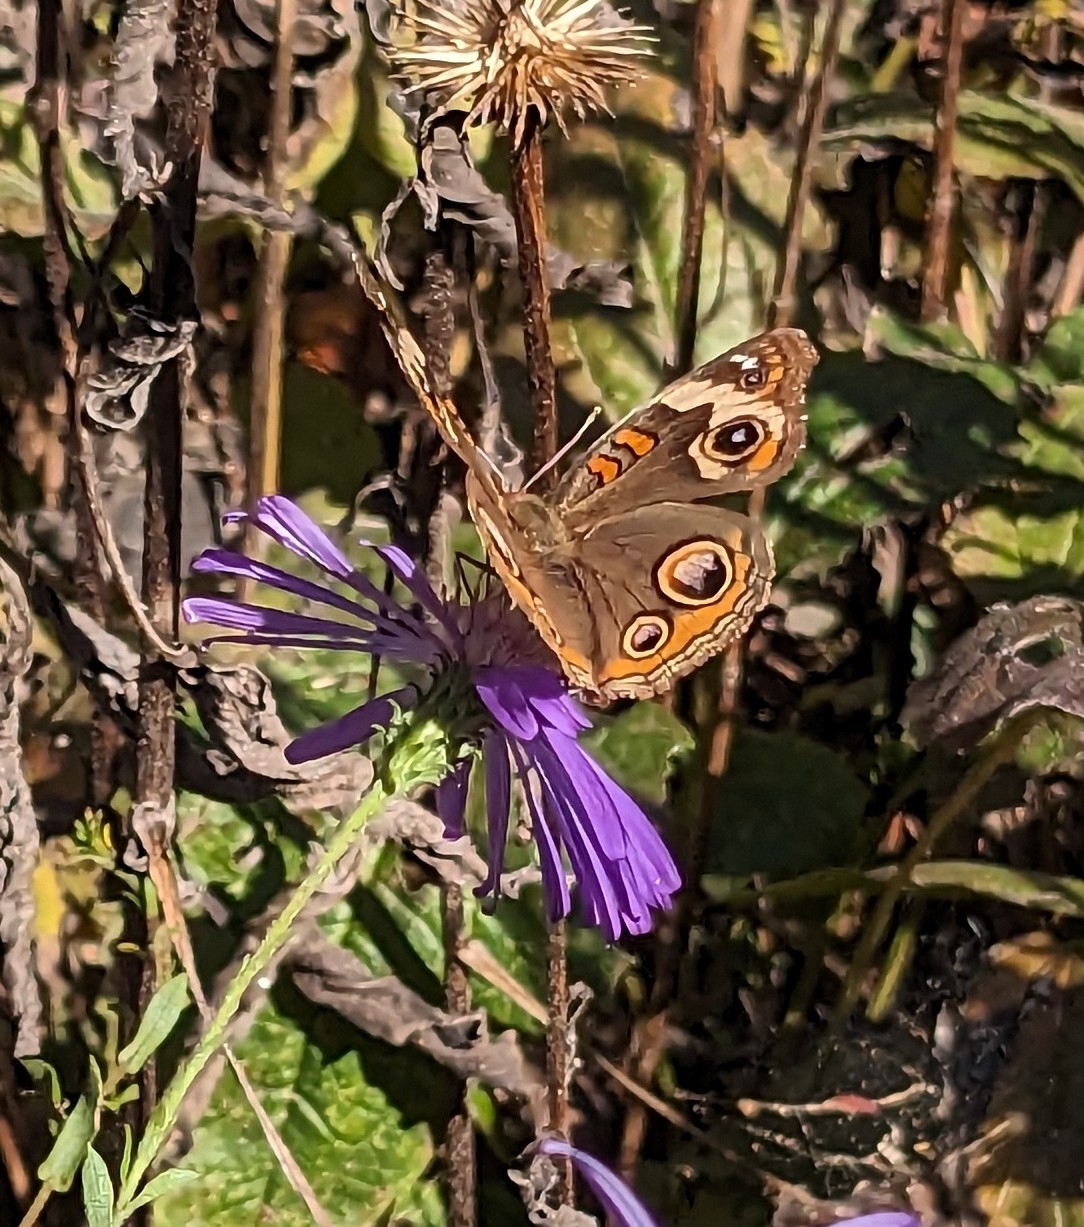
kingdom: Animalia
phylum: Arthropoda
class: Insecta
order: Lepidoptera
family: Nymphalidae
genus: Junonia
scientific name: Junonia coenia
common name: Common buckeye
